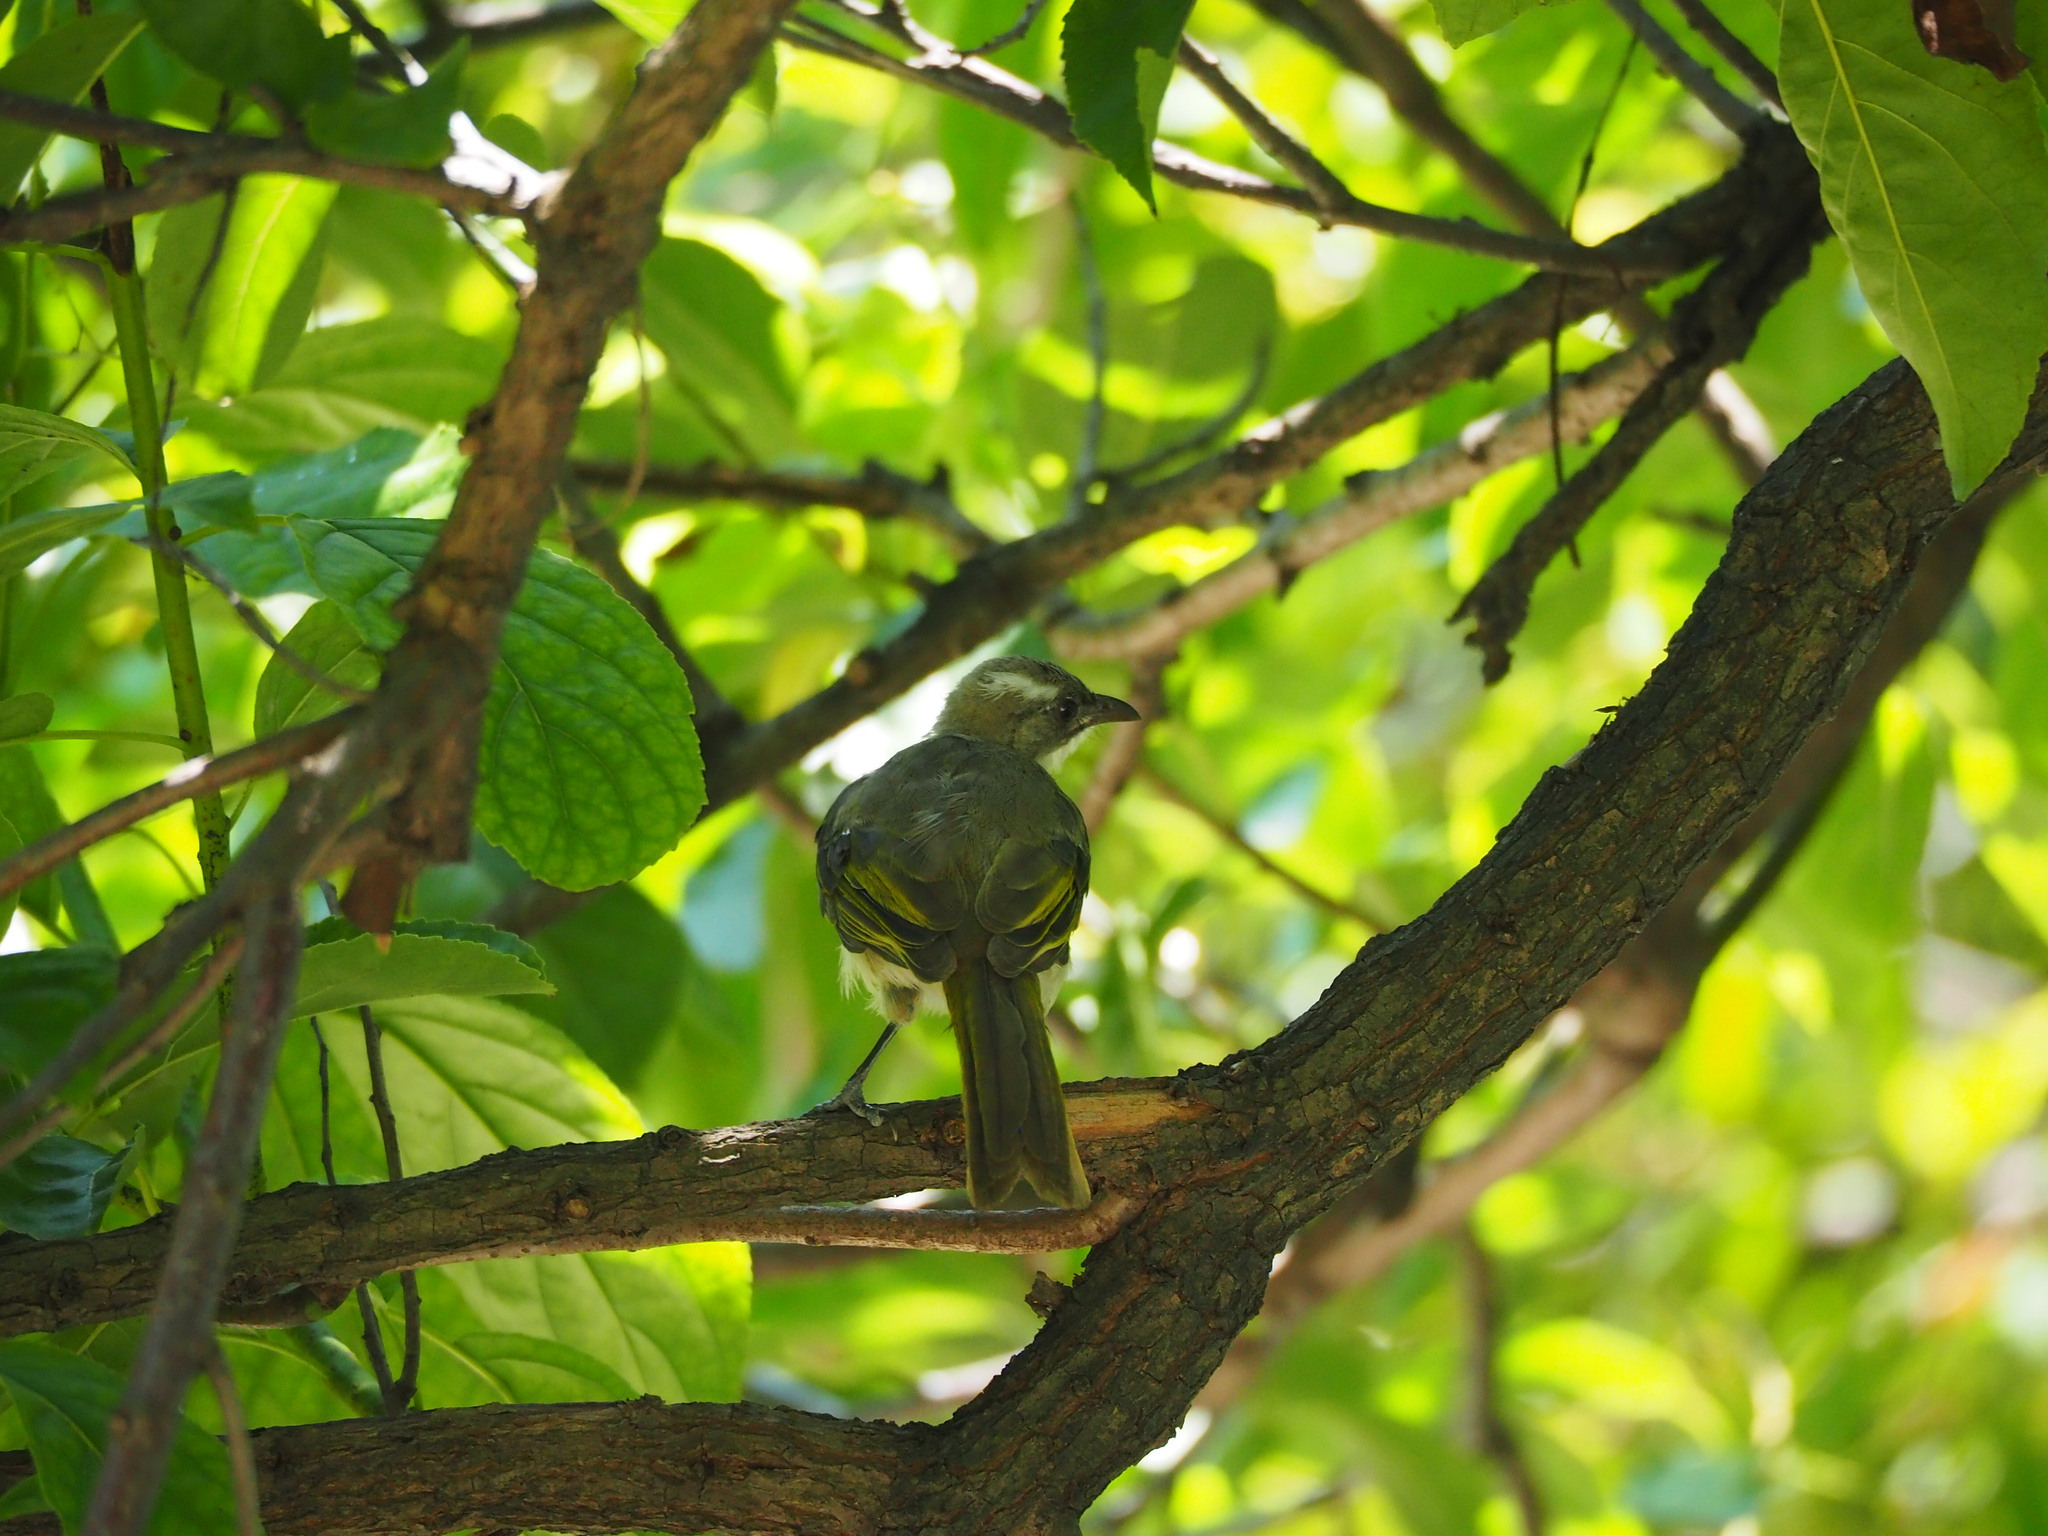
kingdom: Animalia
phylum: Chordata
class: Aves
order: Passeriformes
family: Pycnonotidae
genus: Pycnonotus
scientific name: Pycnonotus sinensis
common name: Light-vented bulbul
